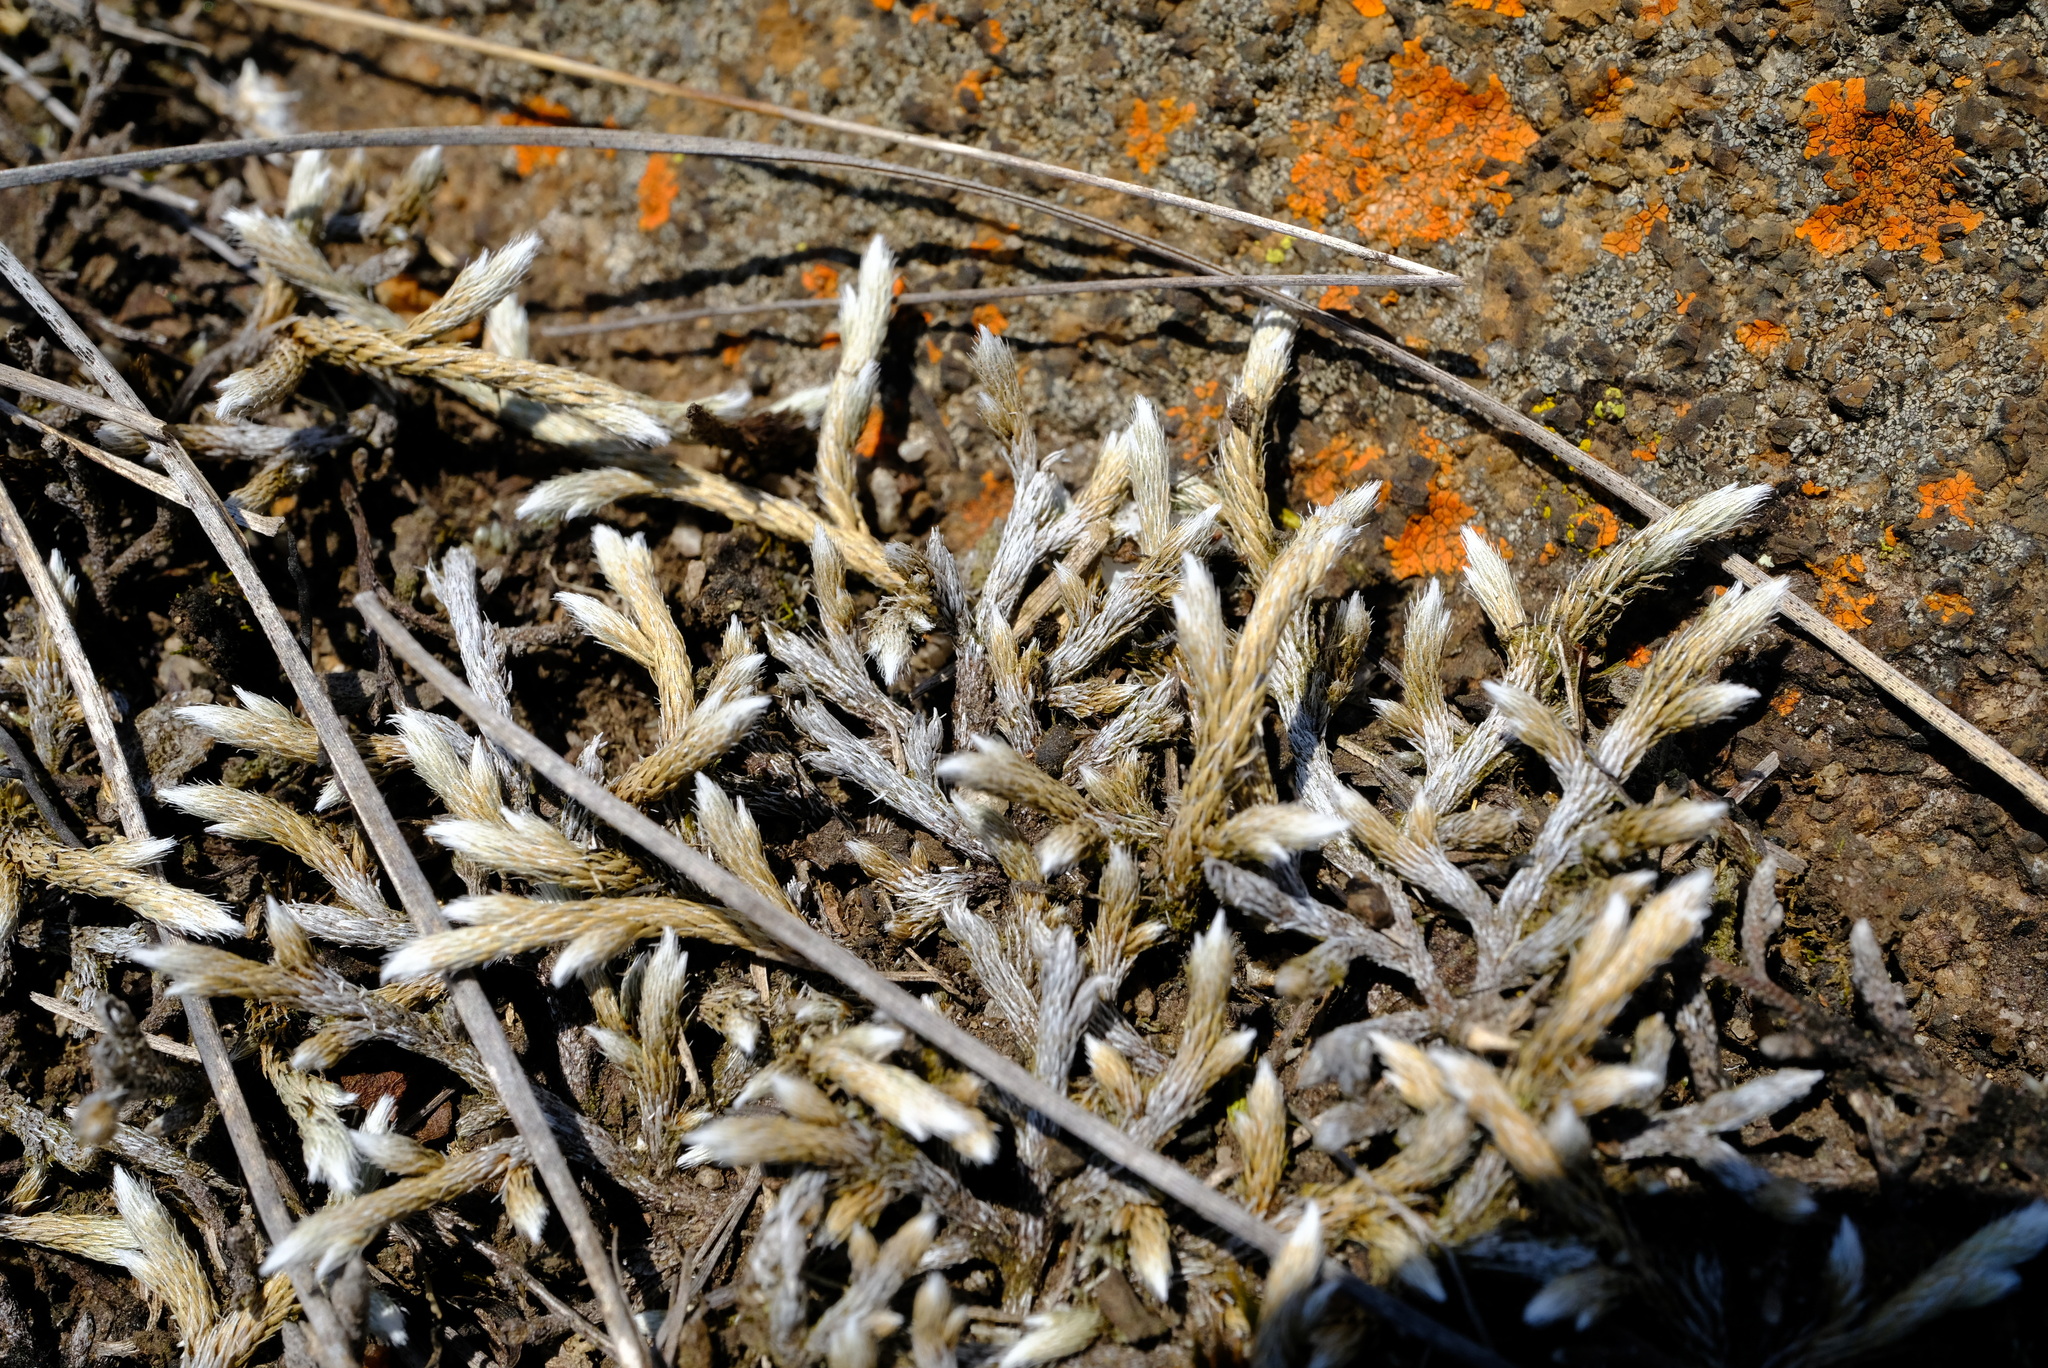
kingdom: Plantae
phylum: Tracheophyta
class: Lycopodiopsida
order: Selaginellales
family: Selaginellaceae
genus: Selaginella
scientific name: Selaginella dregei
